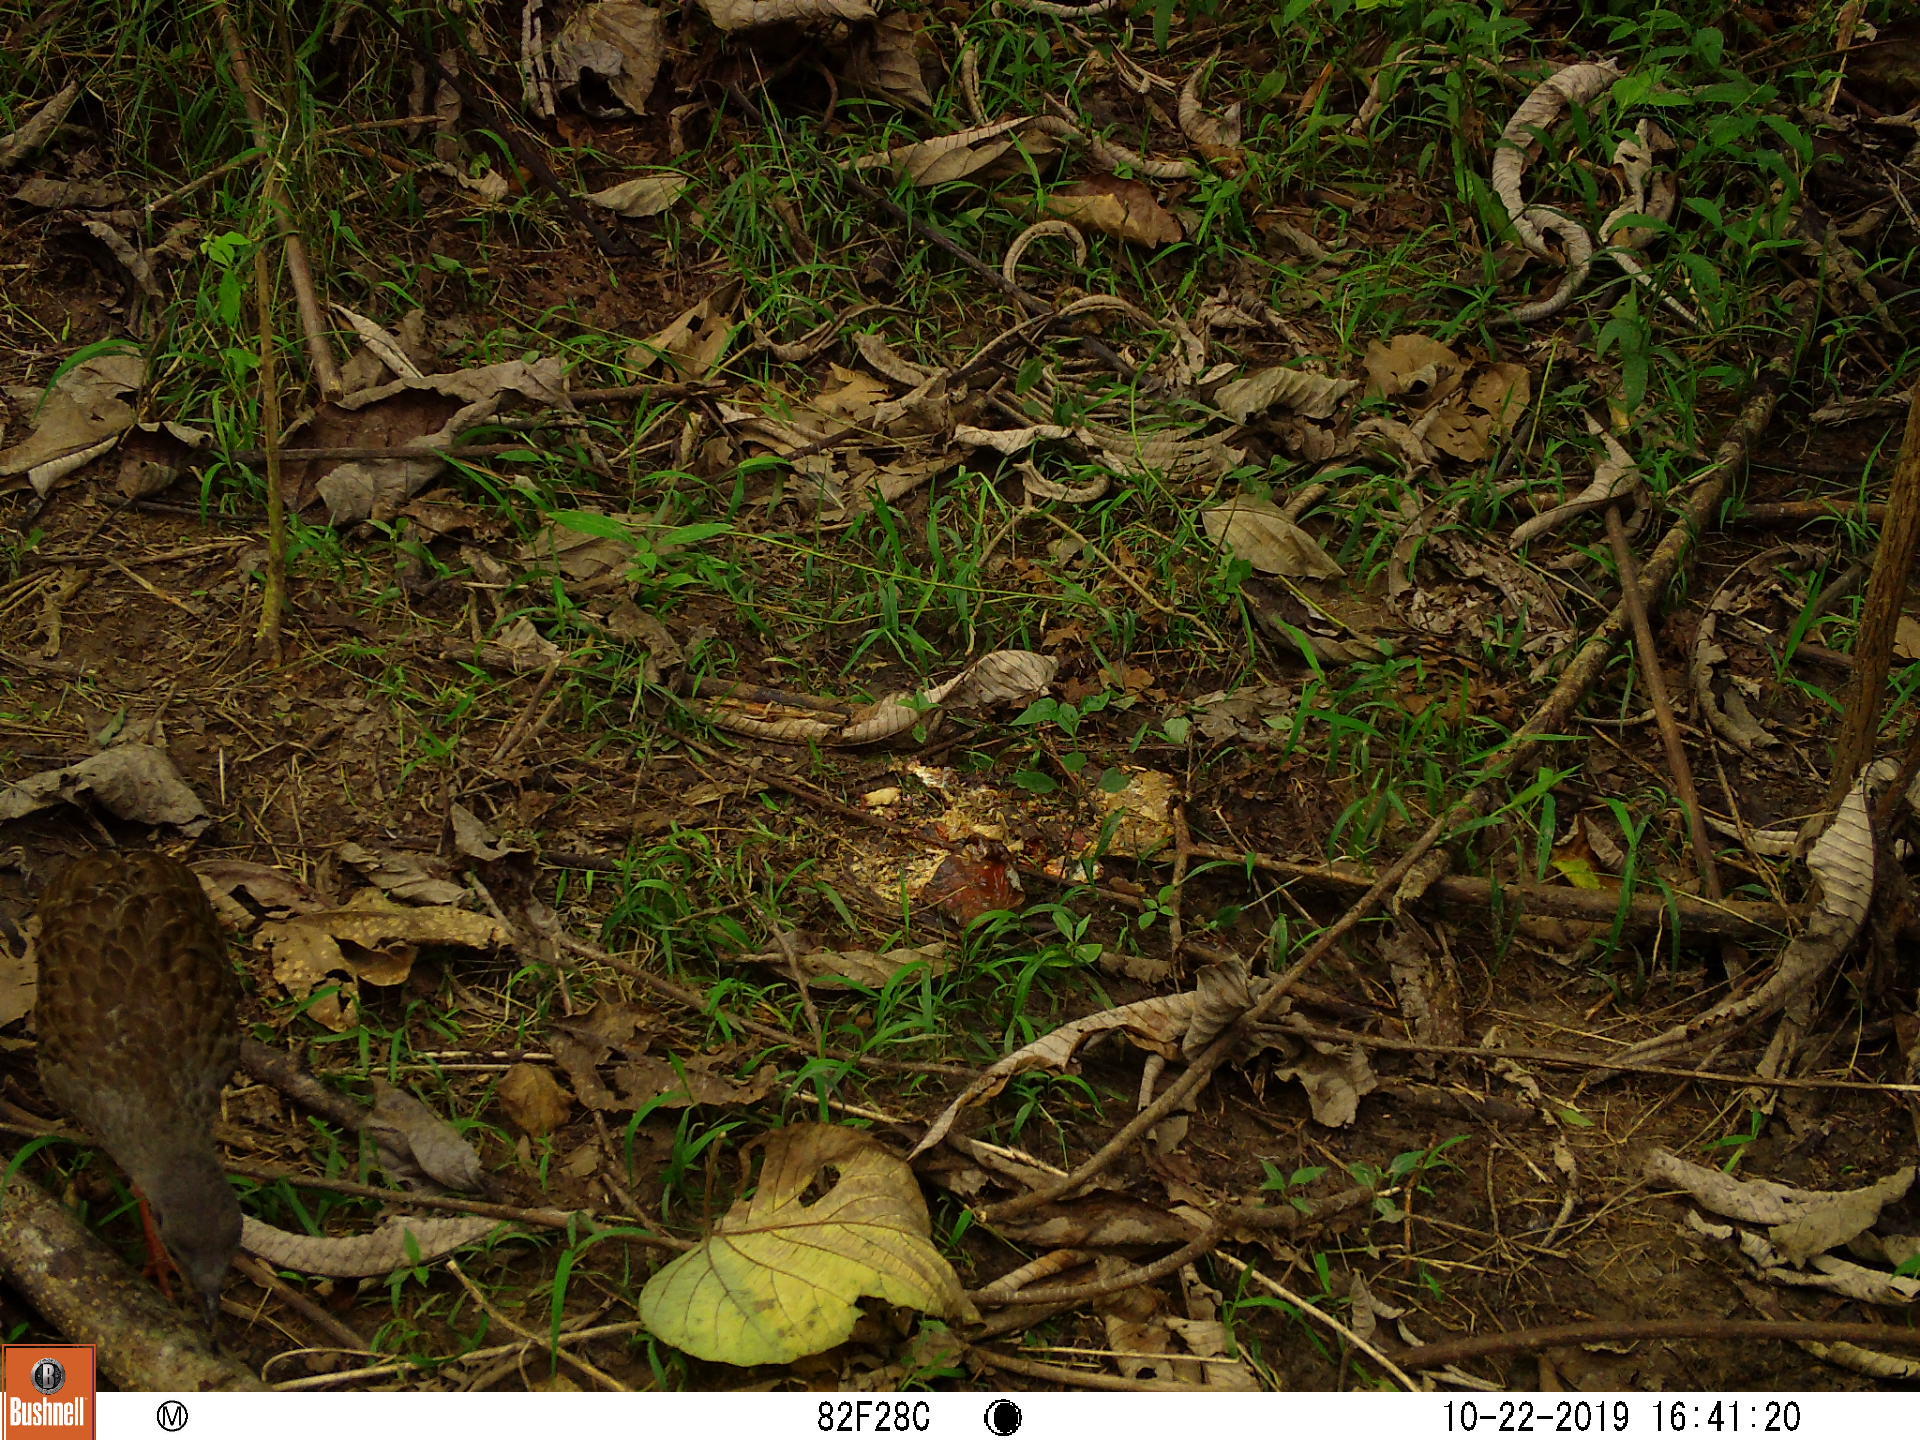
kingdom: Animalia
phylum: Chordata
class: Aves
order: Gruiformes
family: Rallidae
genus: Himantornis
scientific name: Himantornis haematopus
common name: Nkulengu rail
